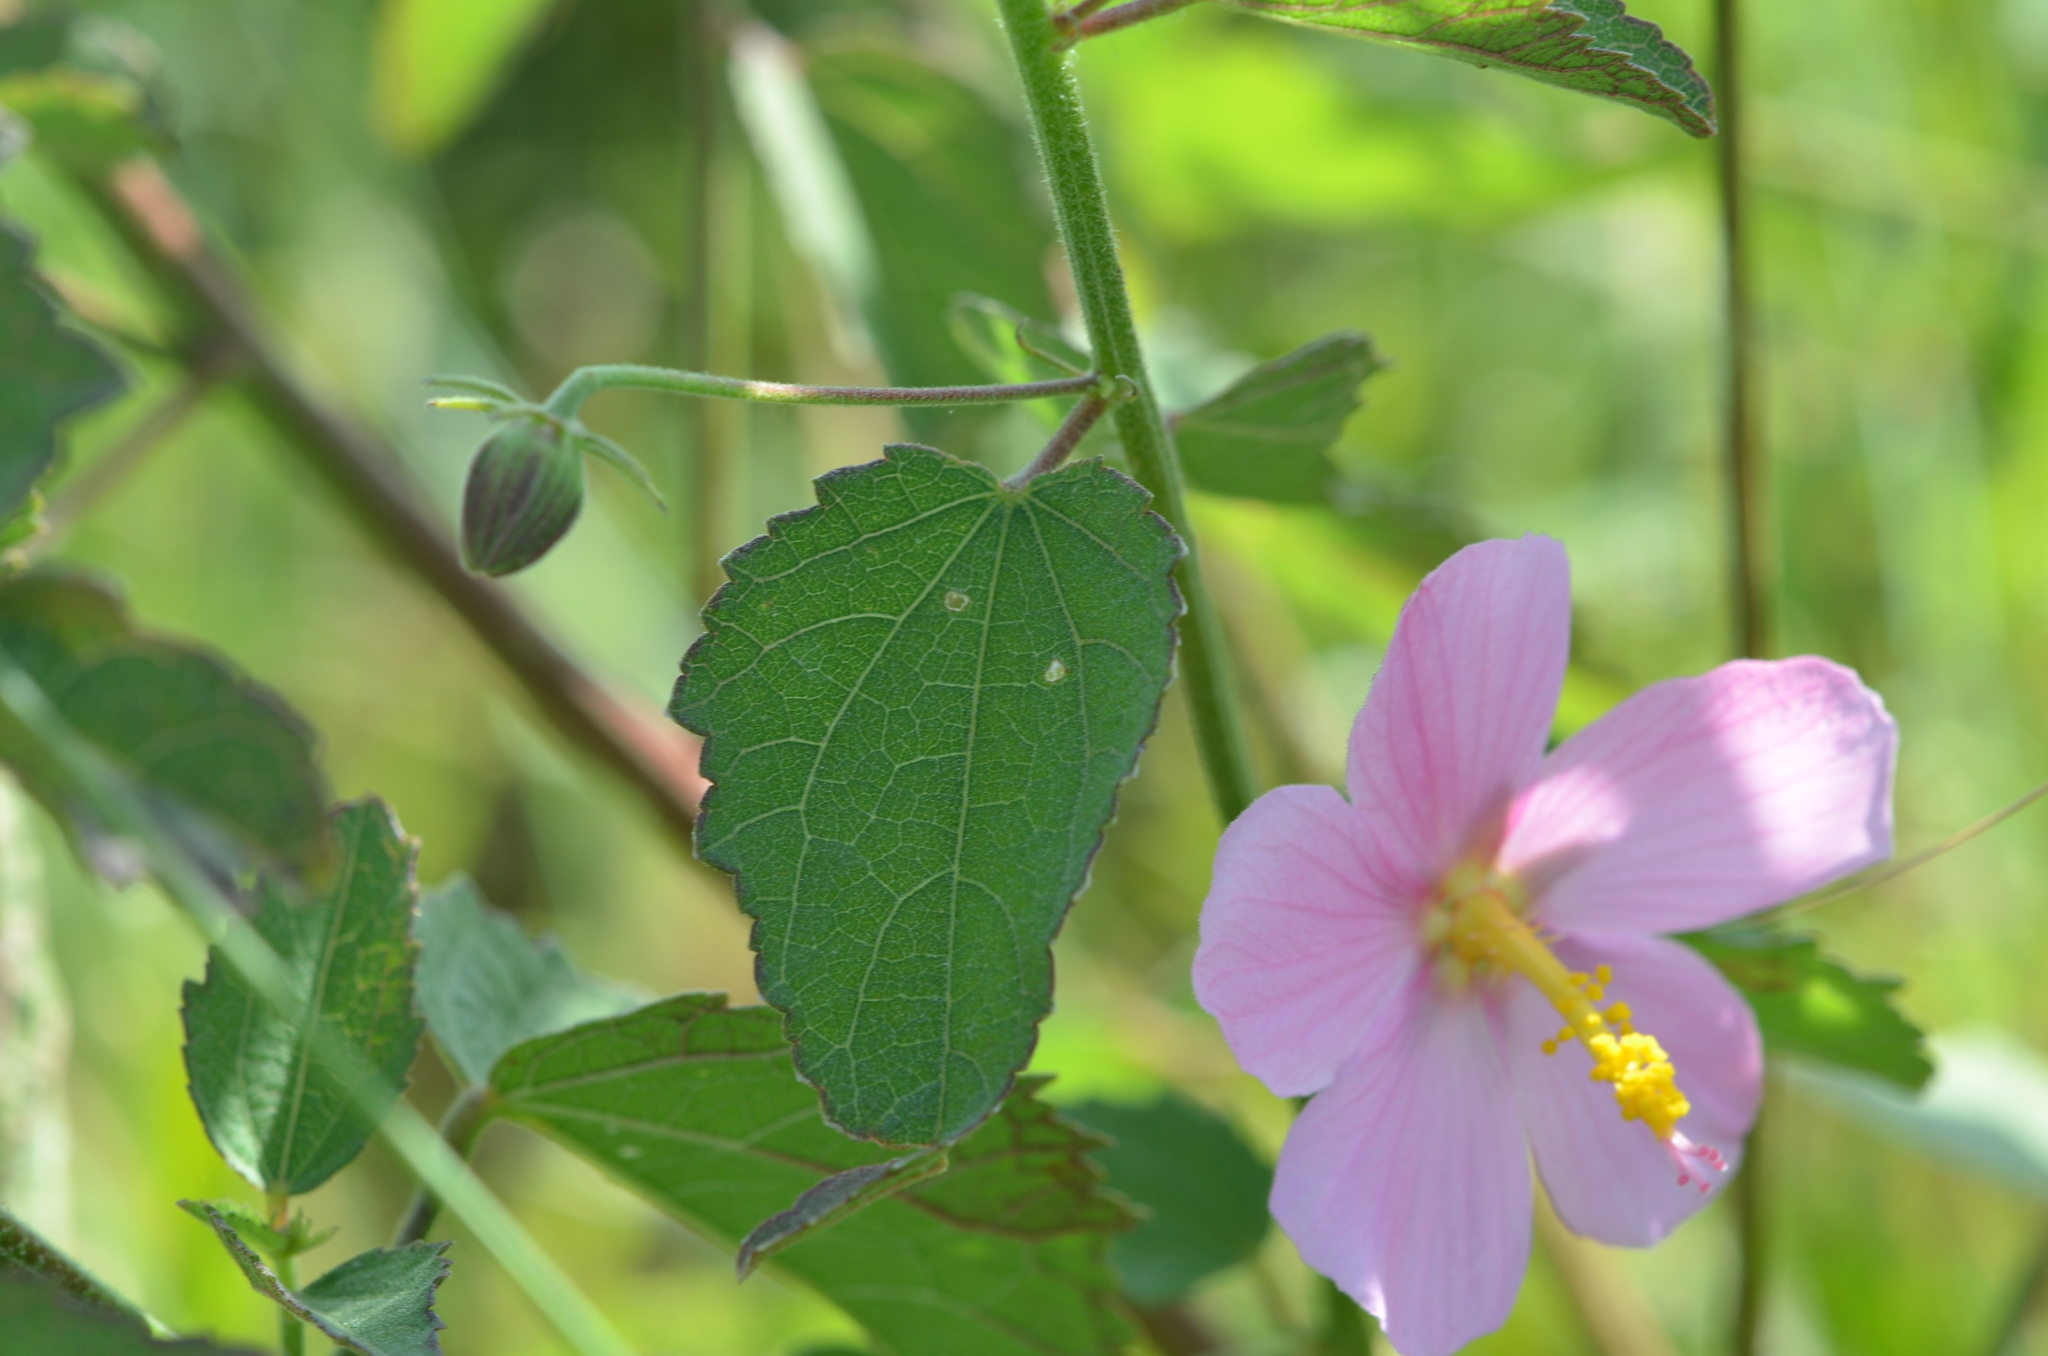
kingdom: Plantae
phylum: Tracheophyta
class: Magnoliopsida
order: Malvales
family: Malvaceae
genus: Kosteletzkya
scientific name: Kosteletzkya pentacarpos
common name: Virginia saltmarsh mallow
